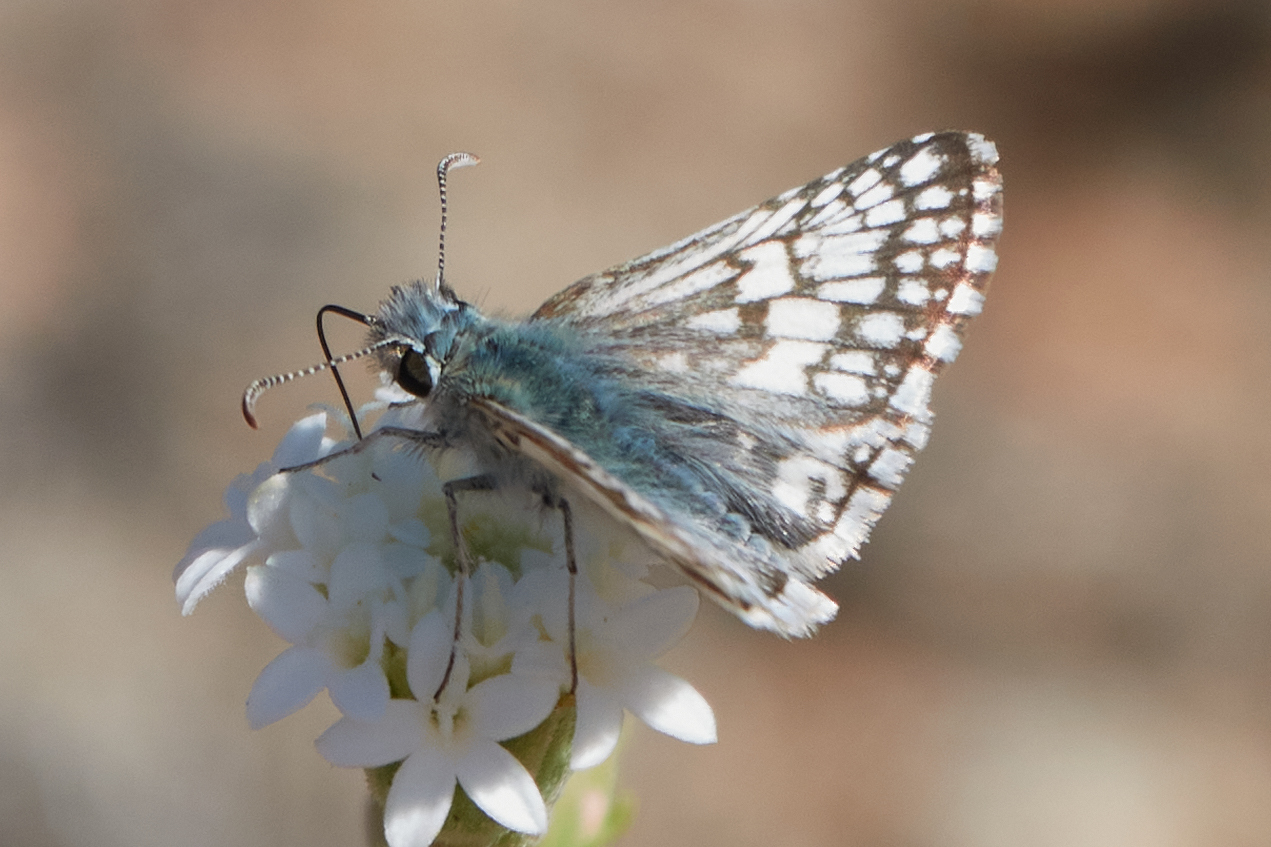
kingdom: Animalia
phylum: Arthropoda
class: Insecta
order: Lepidoptera
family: Hesperiidae
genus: Burnsius
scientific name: Burnsius albezens
